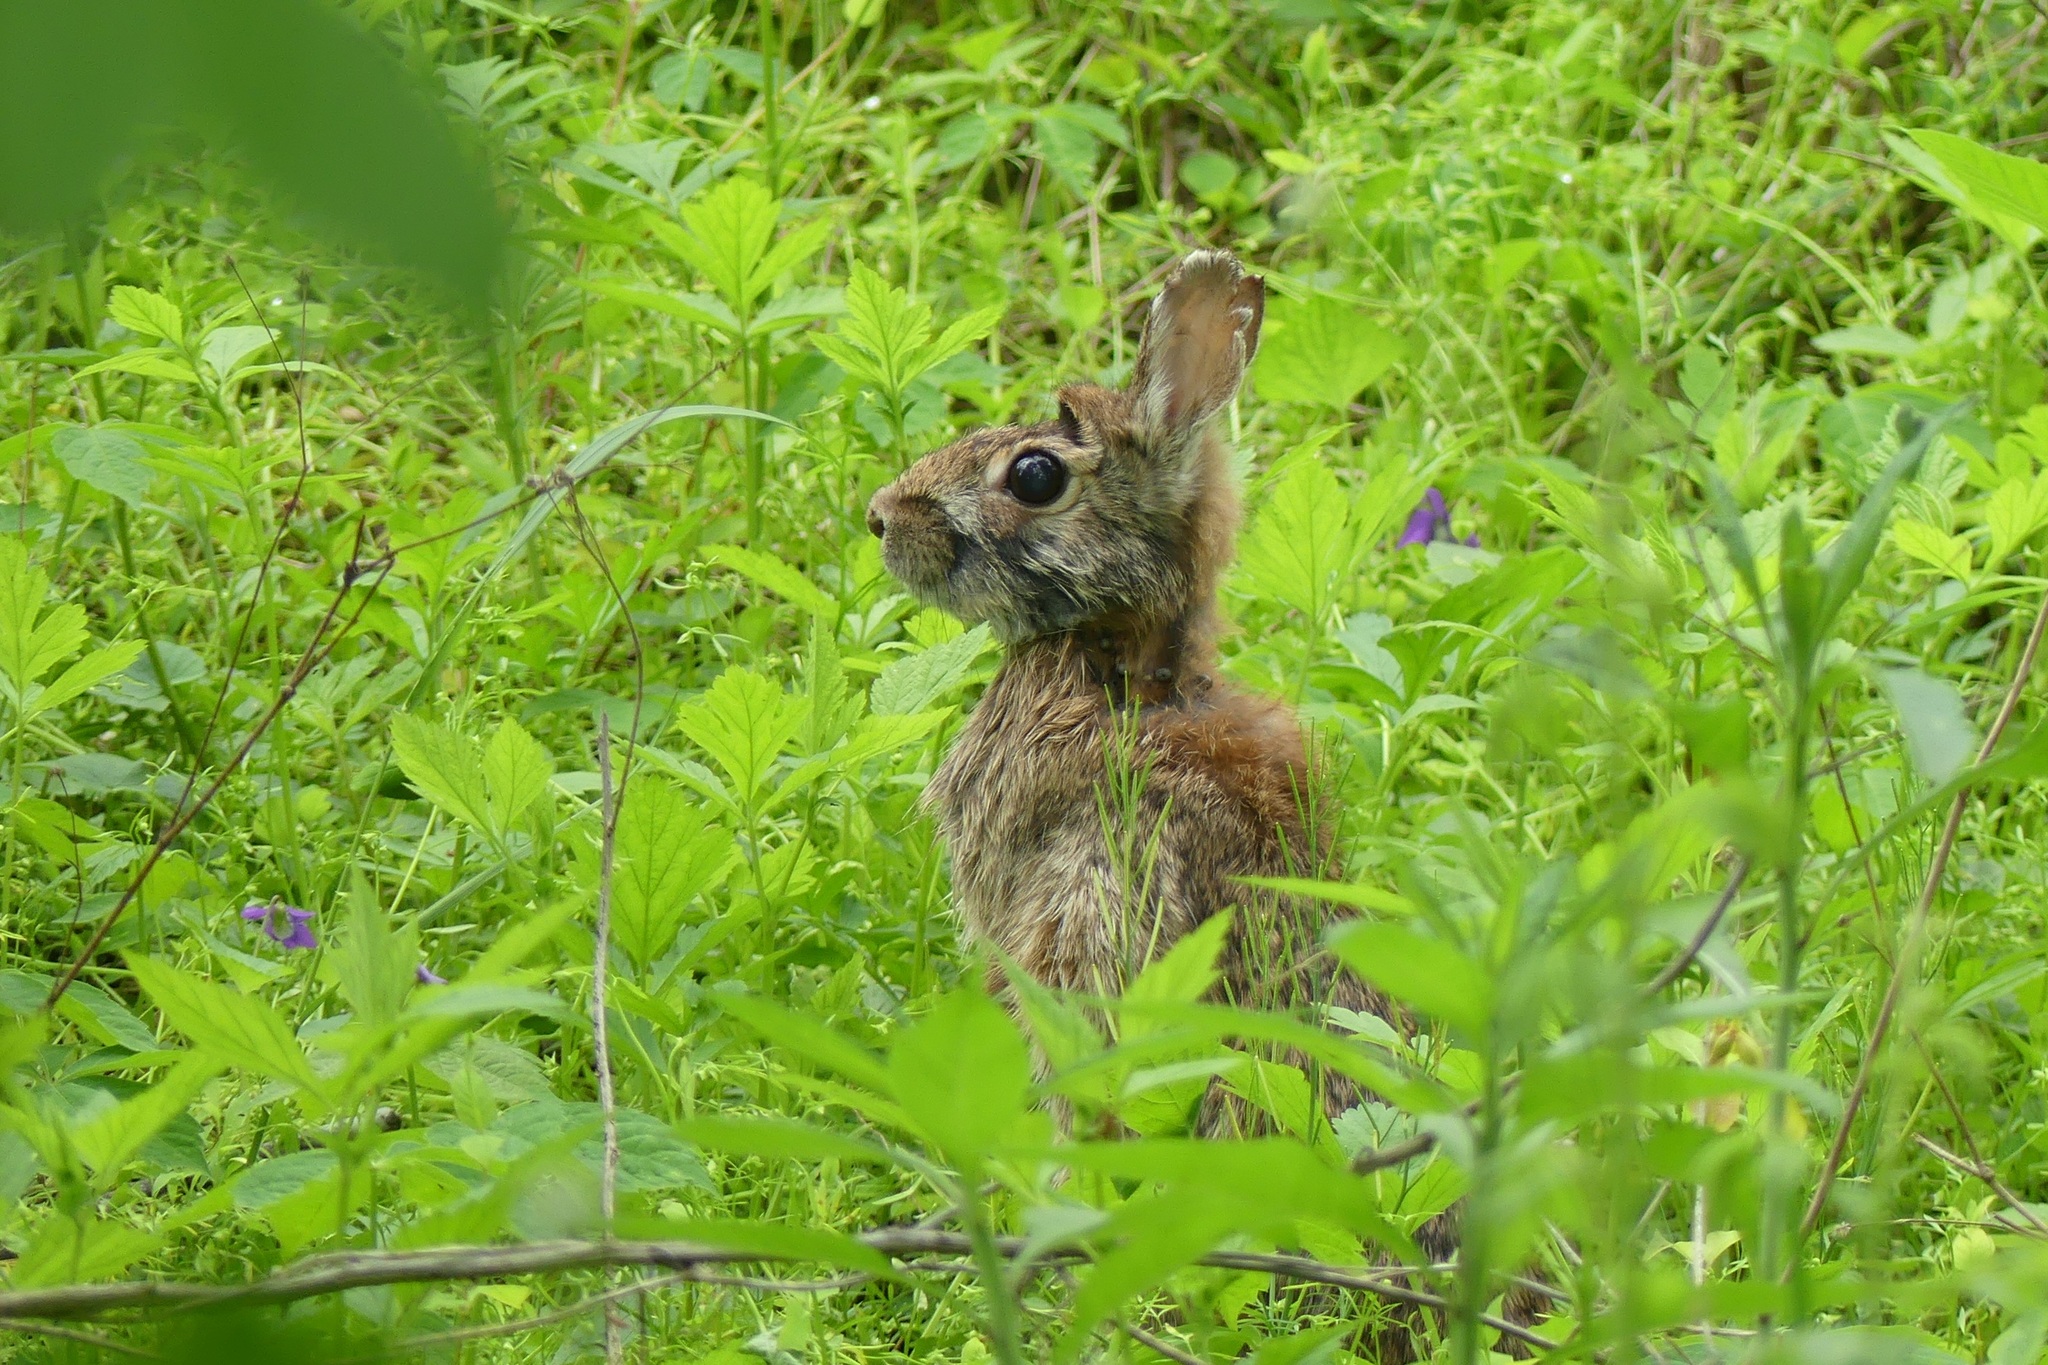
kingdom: Animalia
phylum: Chordata
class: Mammalia
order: Lagomorpha
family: Leporidae
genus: Sylvilagus
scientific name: Sylvilagus floridanus
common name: Eastern cottontail
